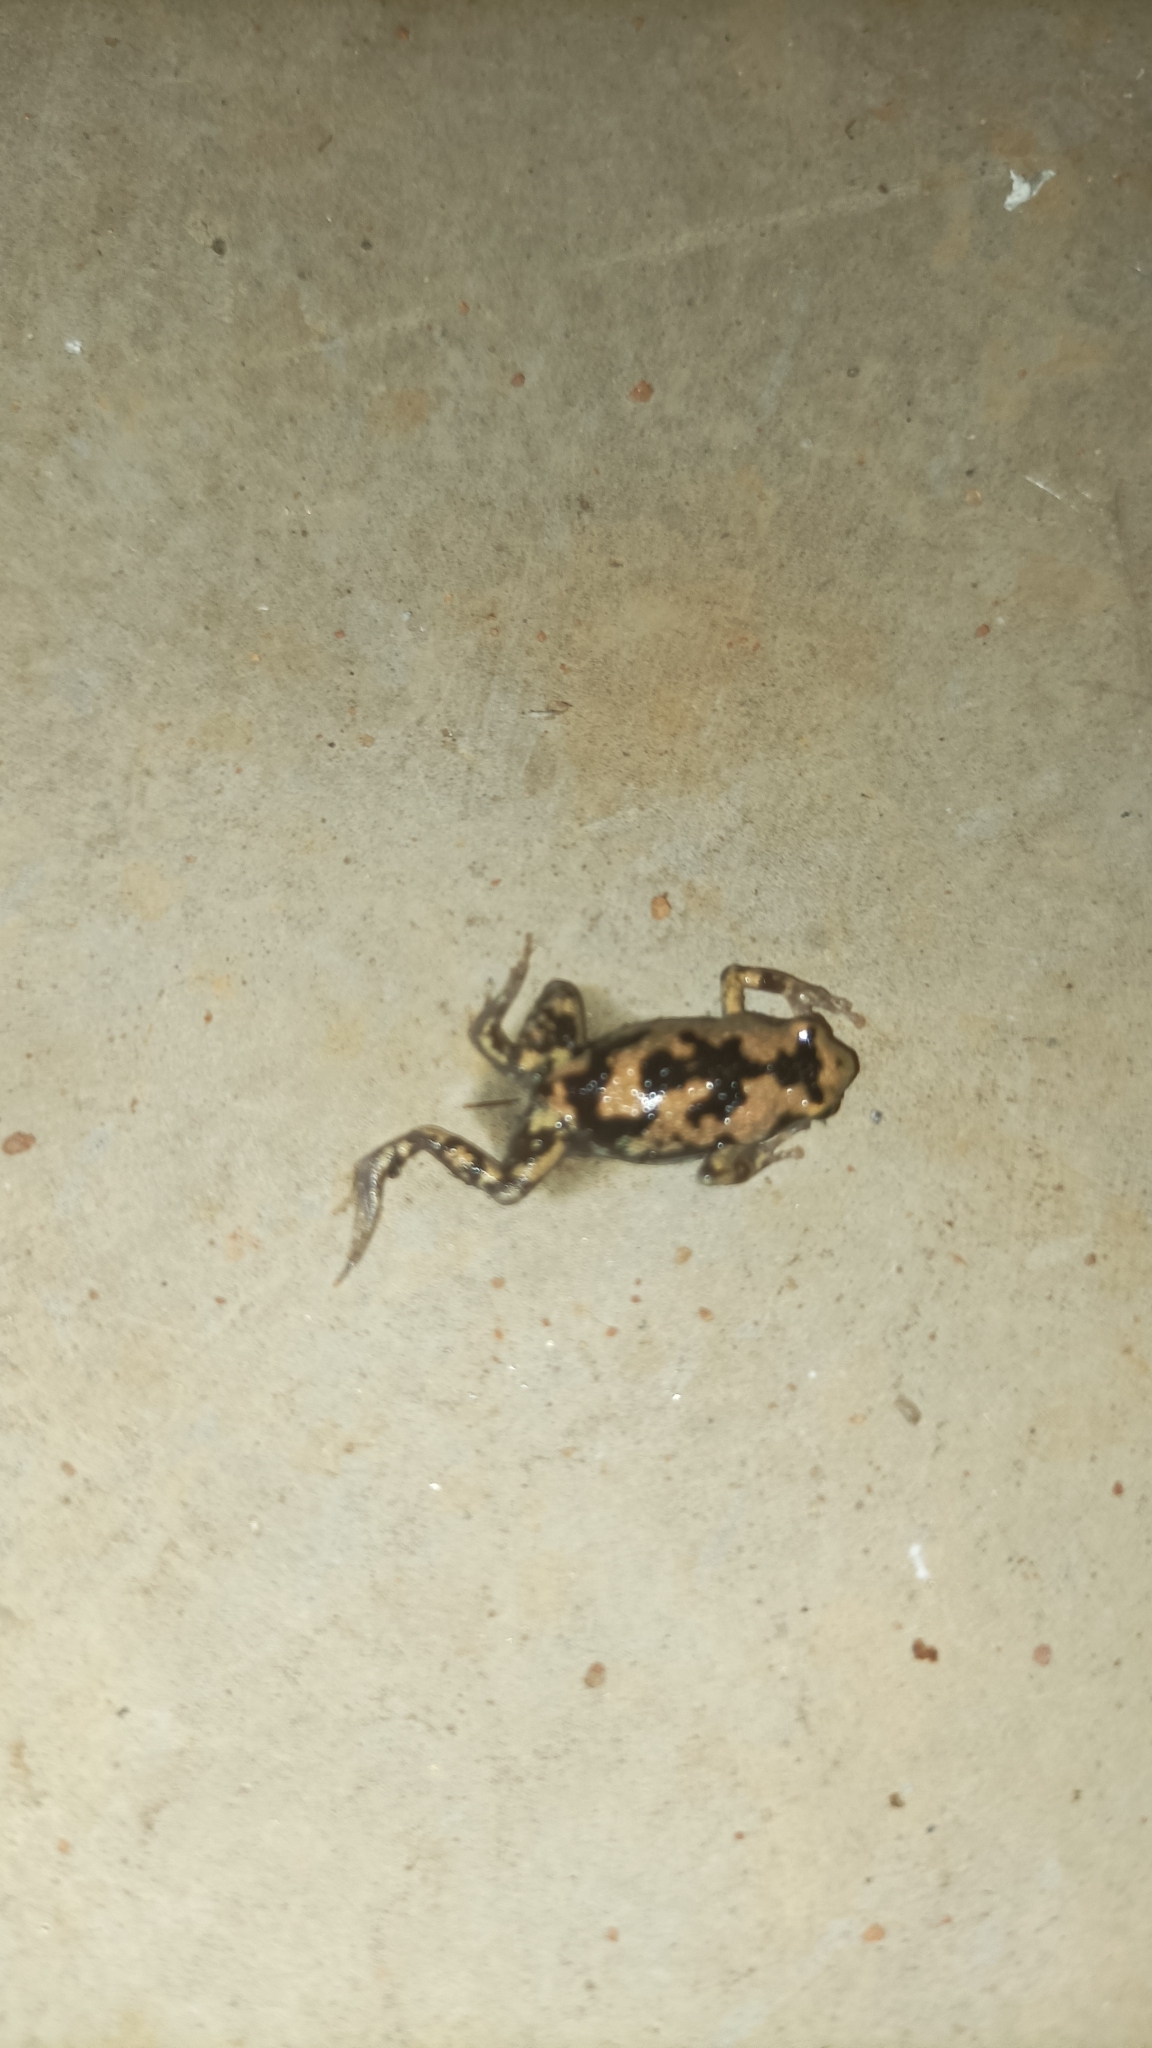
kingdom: Animalia
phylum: Chordata
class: Amphibia
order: Anura
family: Microhylidae
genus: Uperodon
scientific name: Uperodon variegatus
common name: Eluru dot frog
